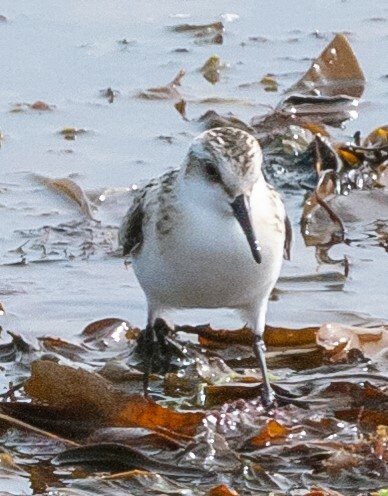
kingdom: Animalia
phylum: Chordata
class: Aves
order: Charadriiformes
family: Scolopacidae
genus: Calidris
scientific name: Calidris alba
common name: Sanderling
